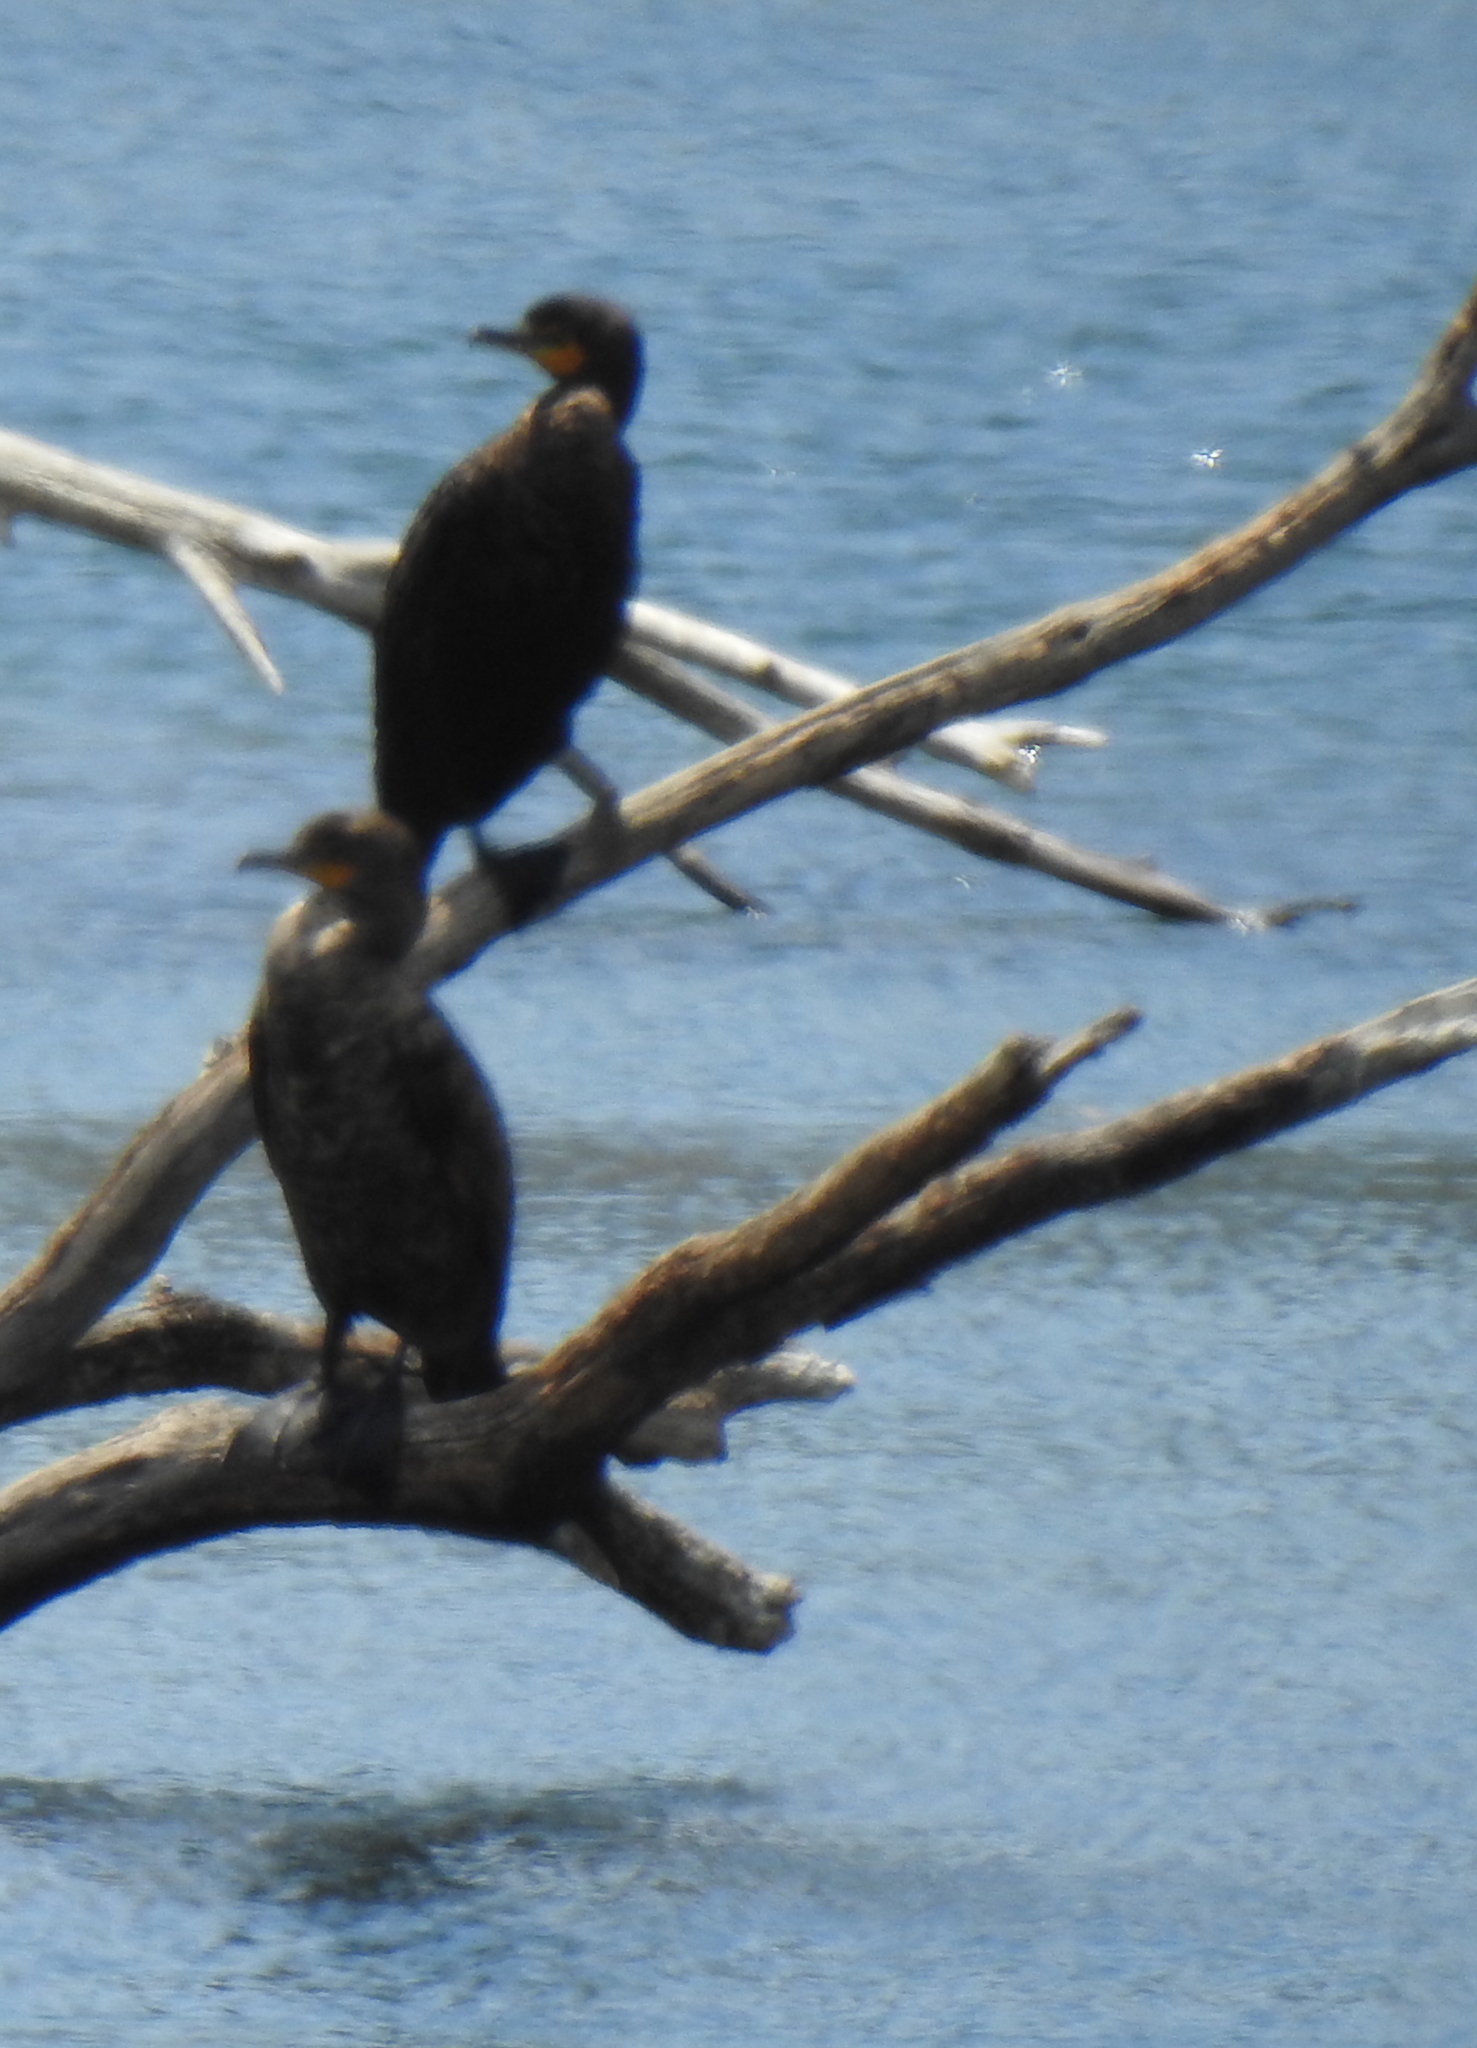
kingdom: Animalia
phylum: Chordata
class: Aves
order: Suliformes
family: Phalacrocoracidae
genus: Phalacrocorax
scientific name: Phalacrocorax auritus
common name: Double-crested cormorant
